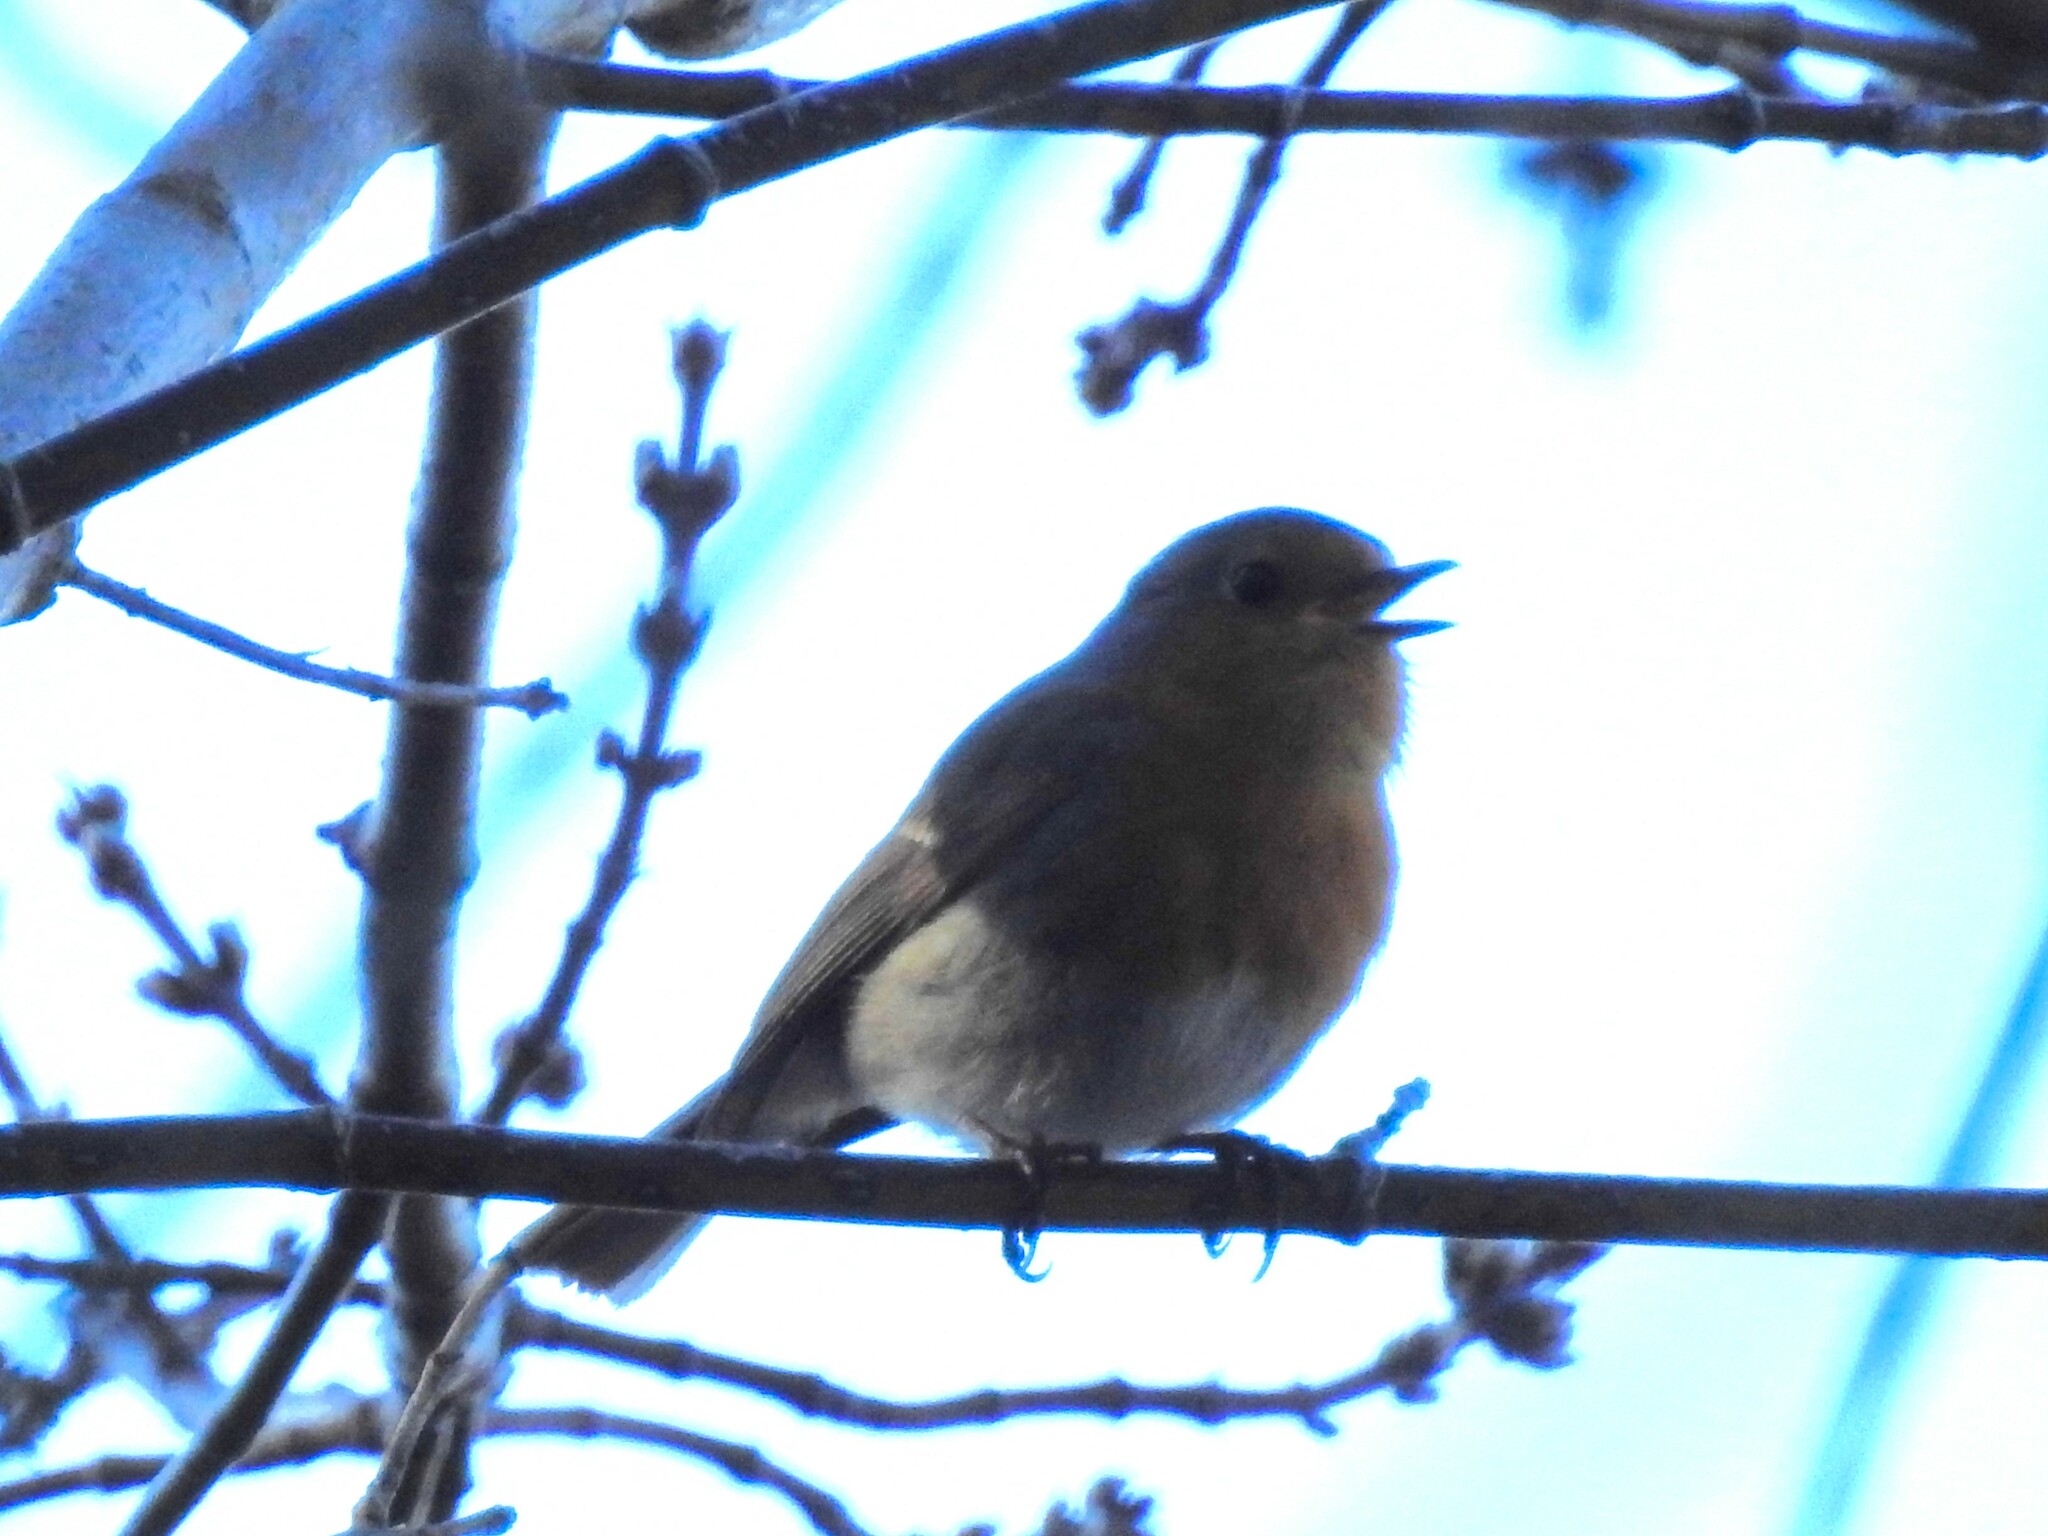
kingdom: Animalia
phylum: Chordata
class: Aves
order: Passeriformes
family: Muscicapidae
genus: Erithacus
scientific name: Erithacus rubecula
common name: European robin
